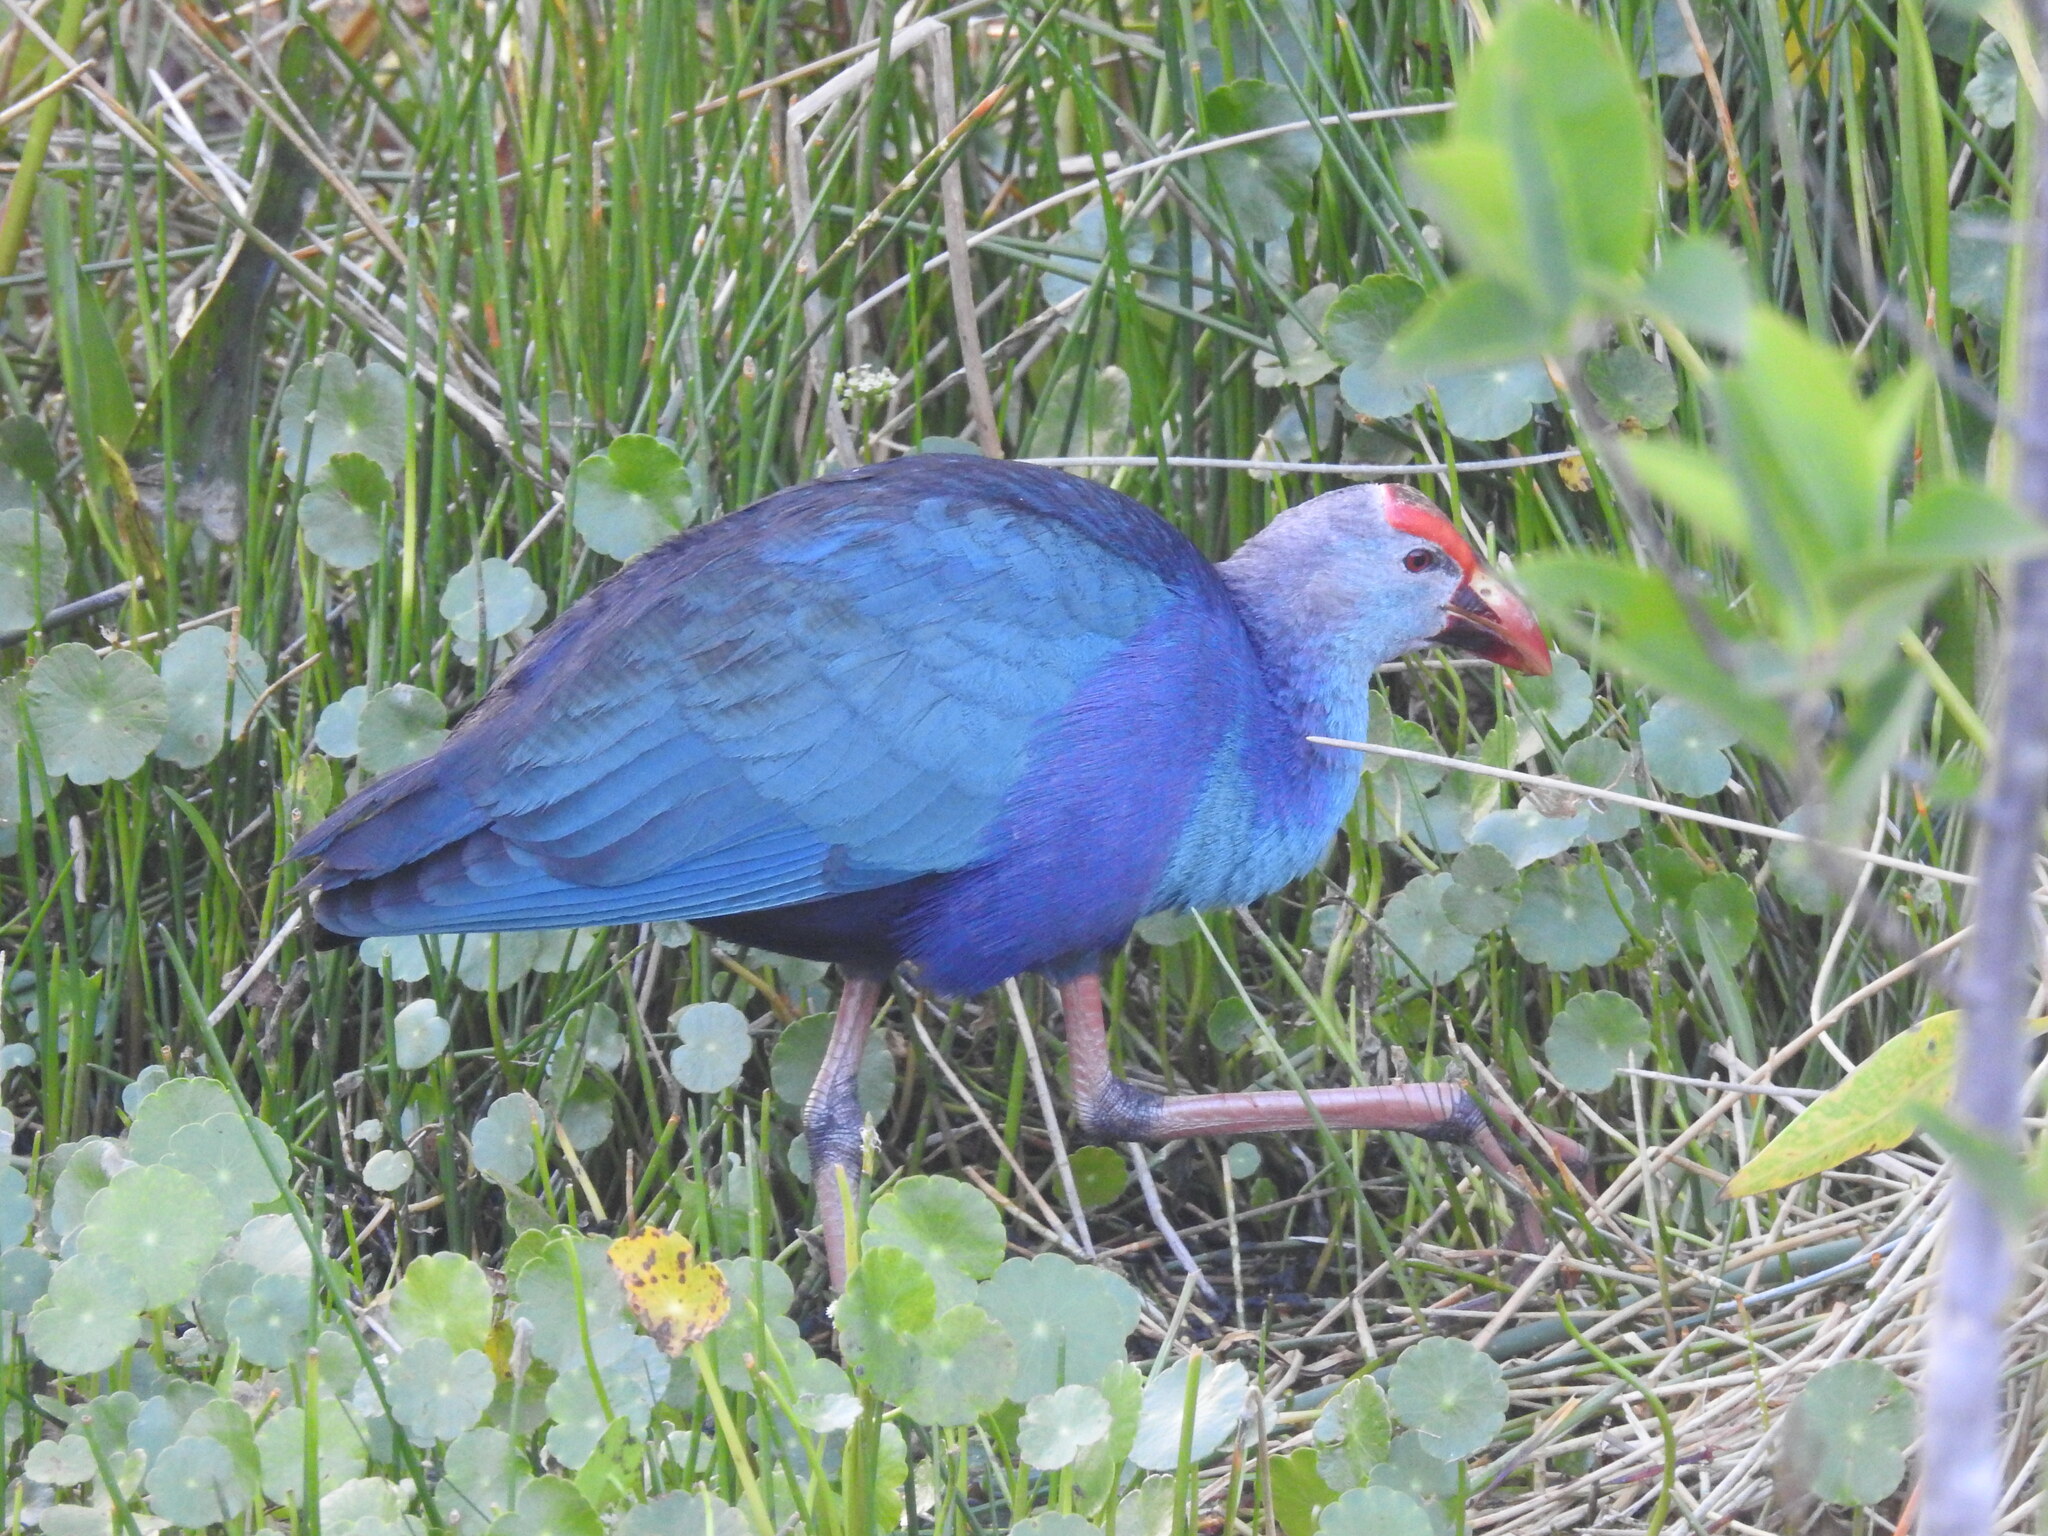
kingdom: Animalia
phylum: Chordata
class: Aves
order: Gruiformes
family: Rallidae
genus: Porphyrio
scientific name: Porphyrio porphyrio
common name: Purple swamphen
